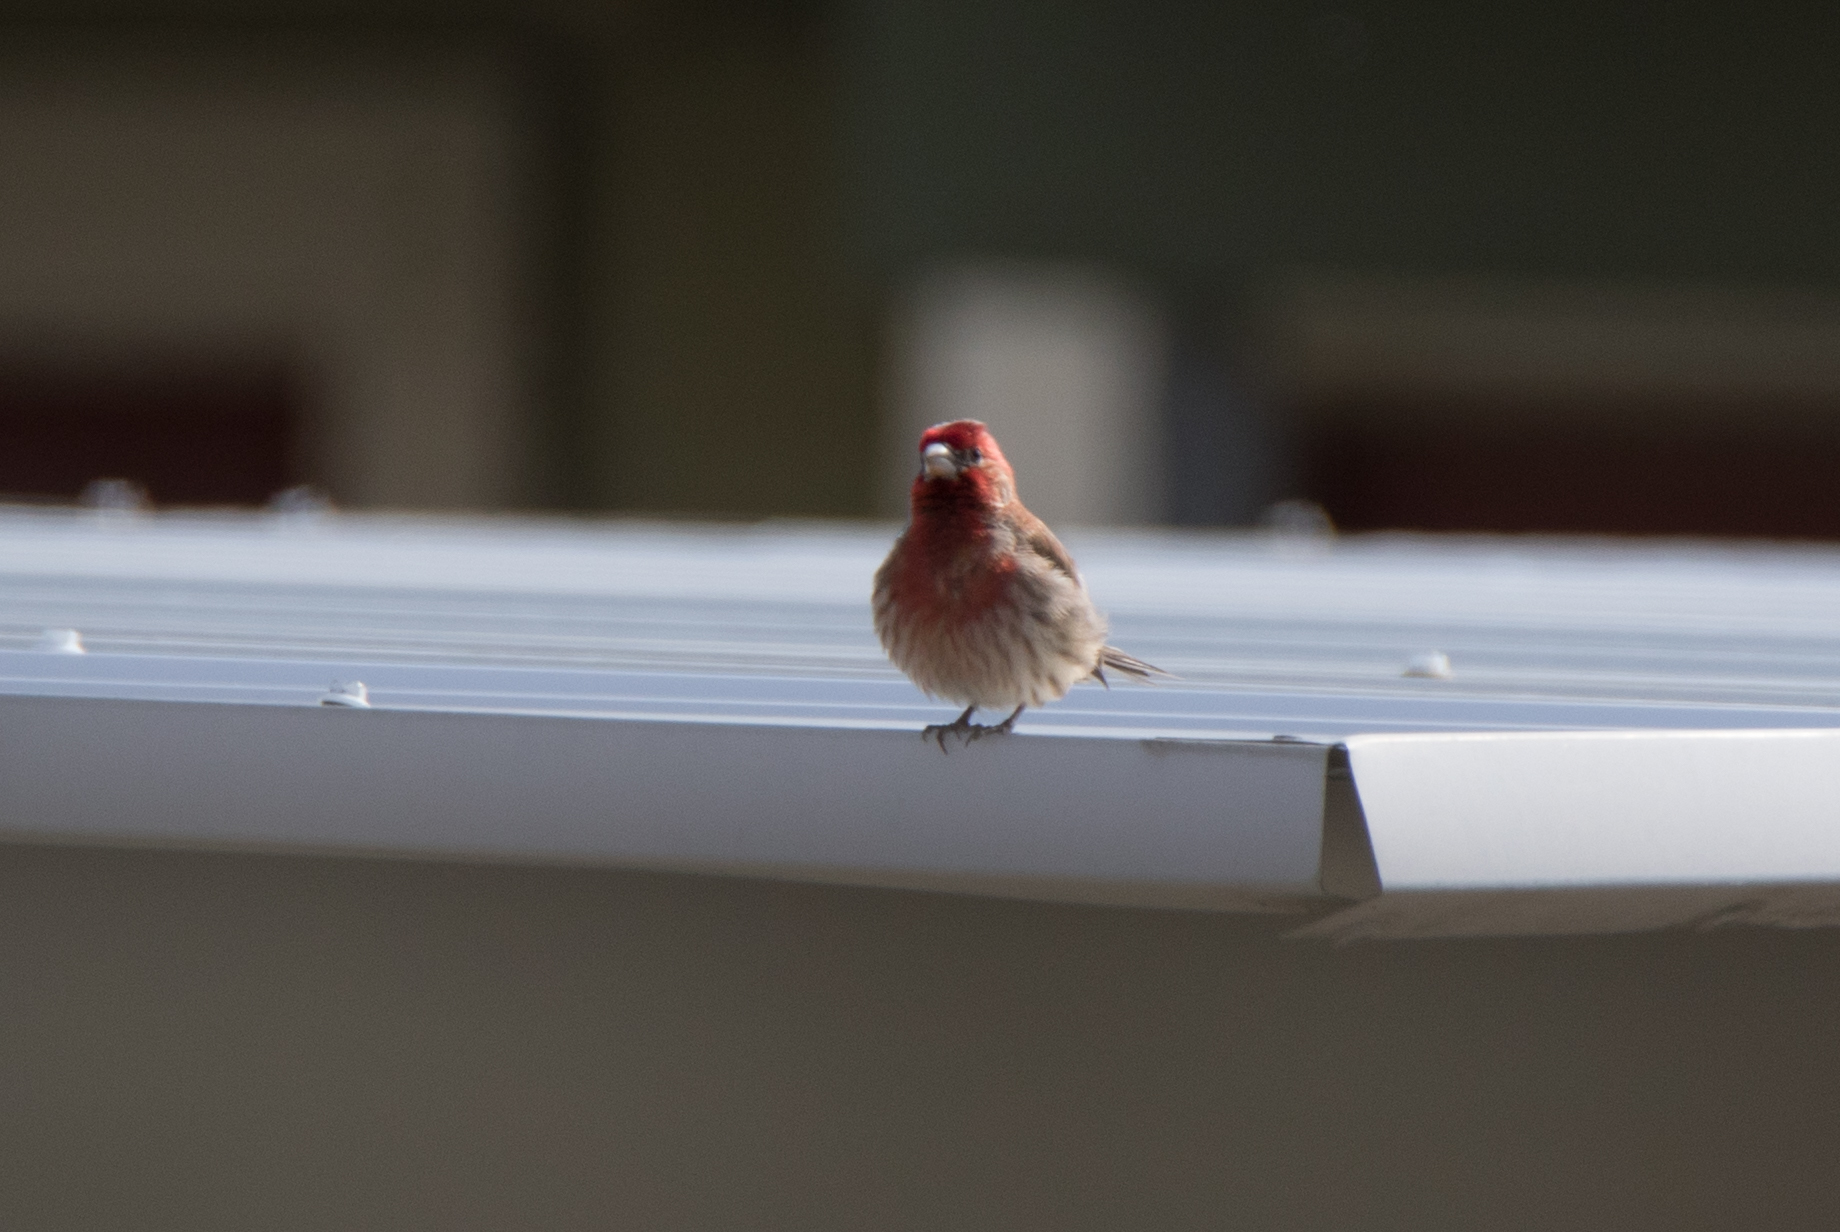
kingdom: Animalia
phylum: Chordata
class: Aves
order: Passeriformes
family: Fringillidae
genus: Haemorhous
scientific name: Haemorhous mexicanus
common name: House finch
